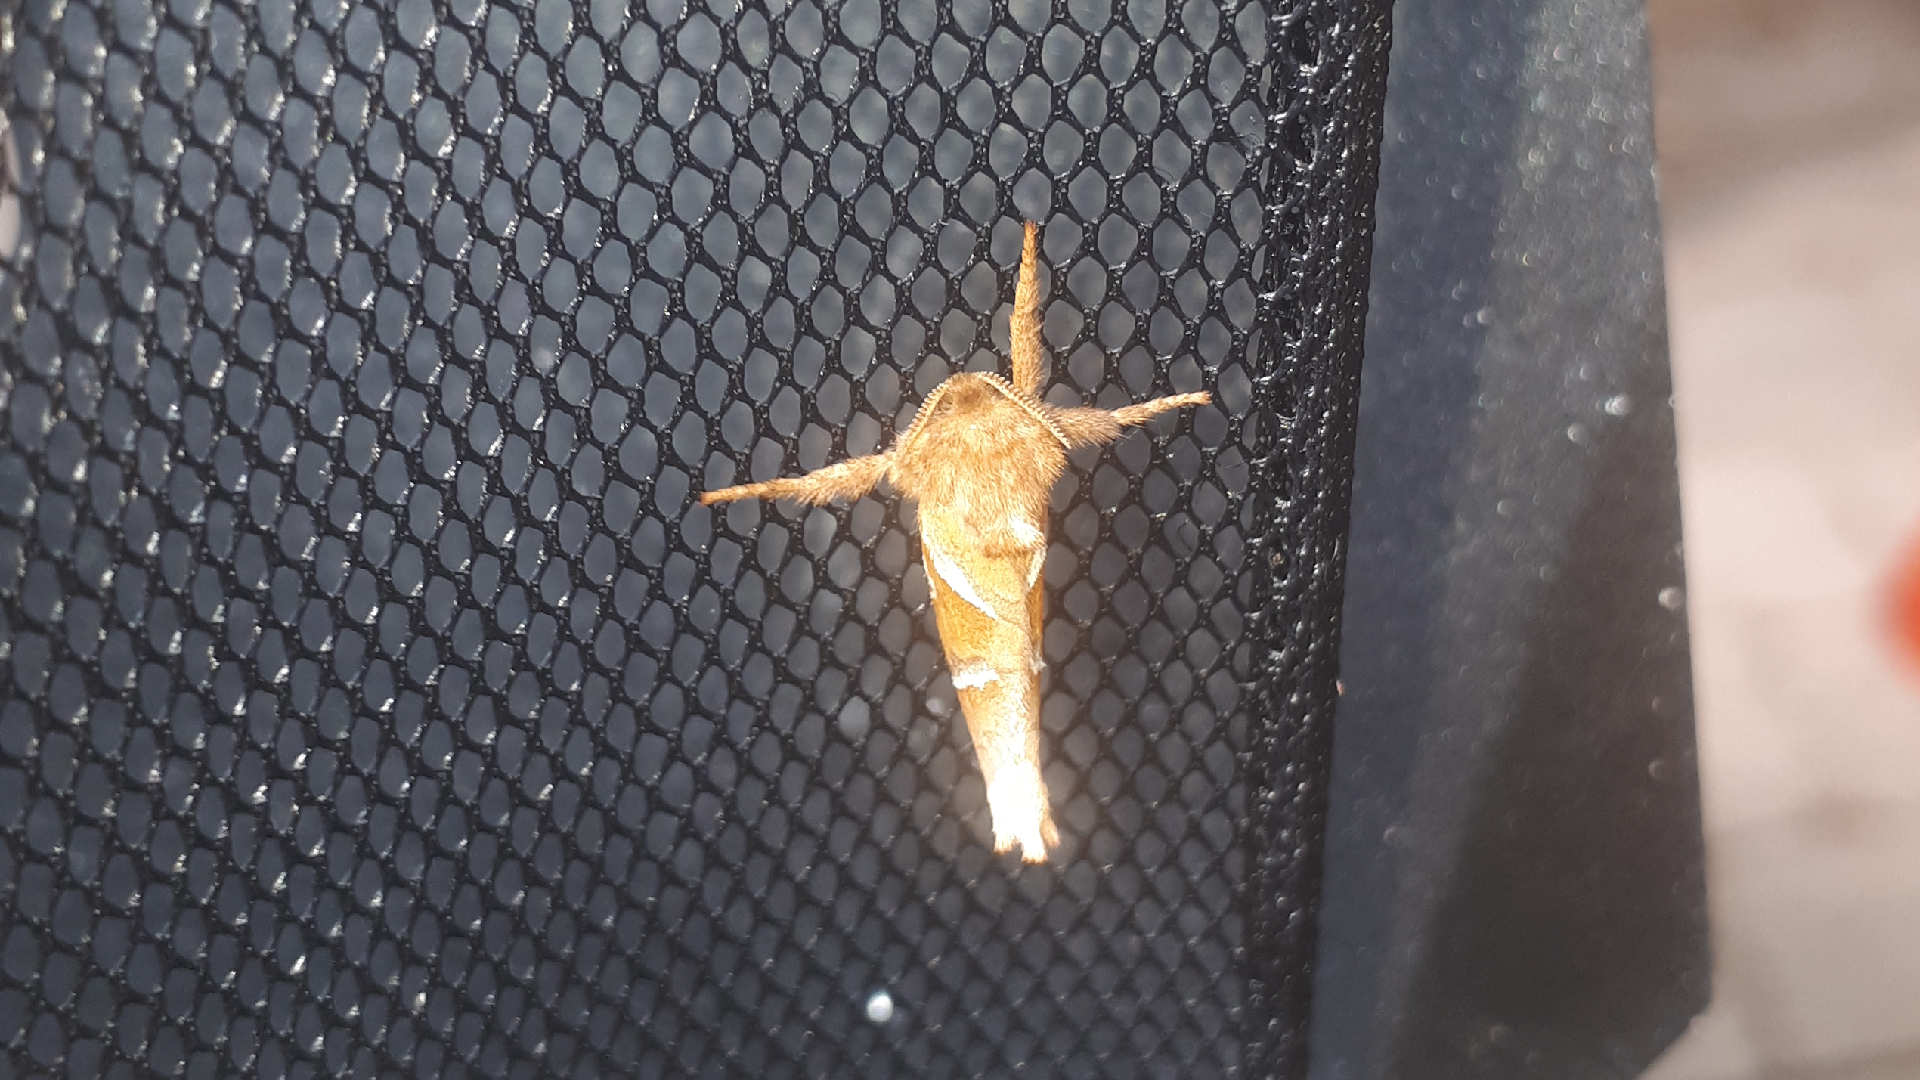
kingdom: Animalia
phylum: Arthropoda
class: Insecta
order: Lepidoptera
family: Hepialidae
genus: Triodia
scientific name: Triodia sylvina
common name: Orange swift
